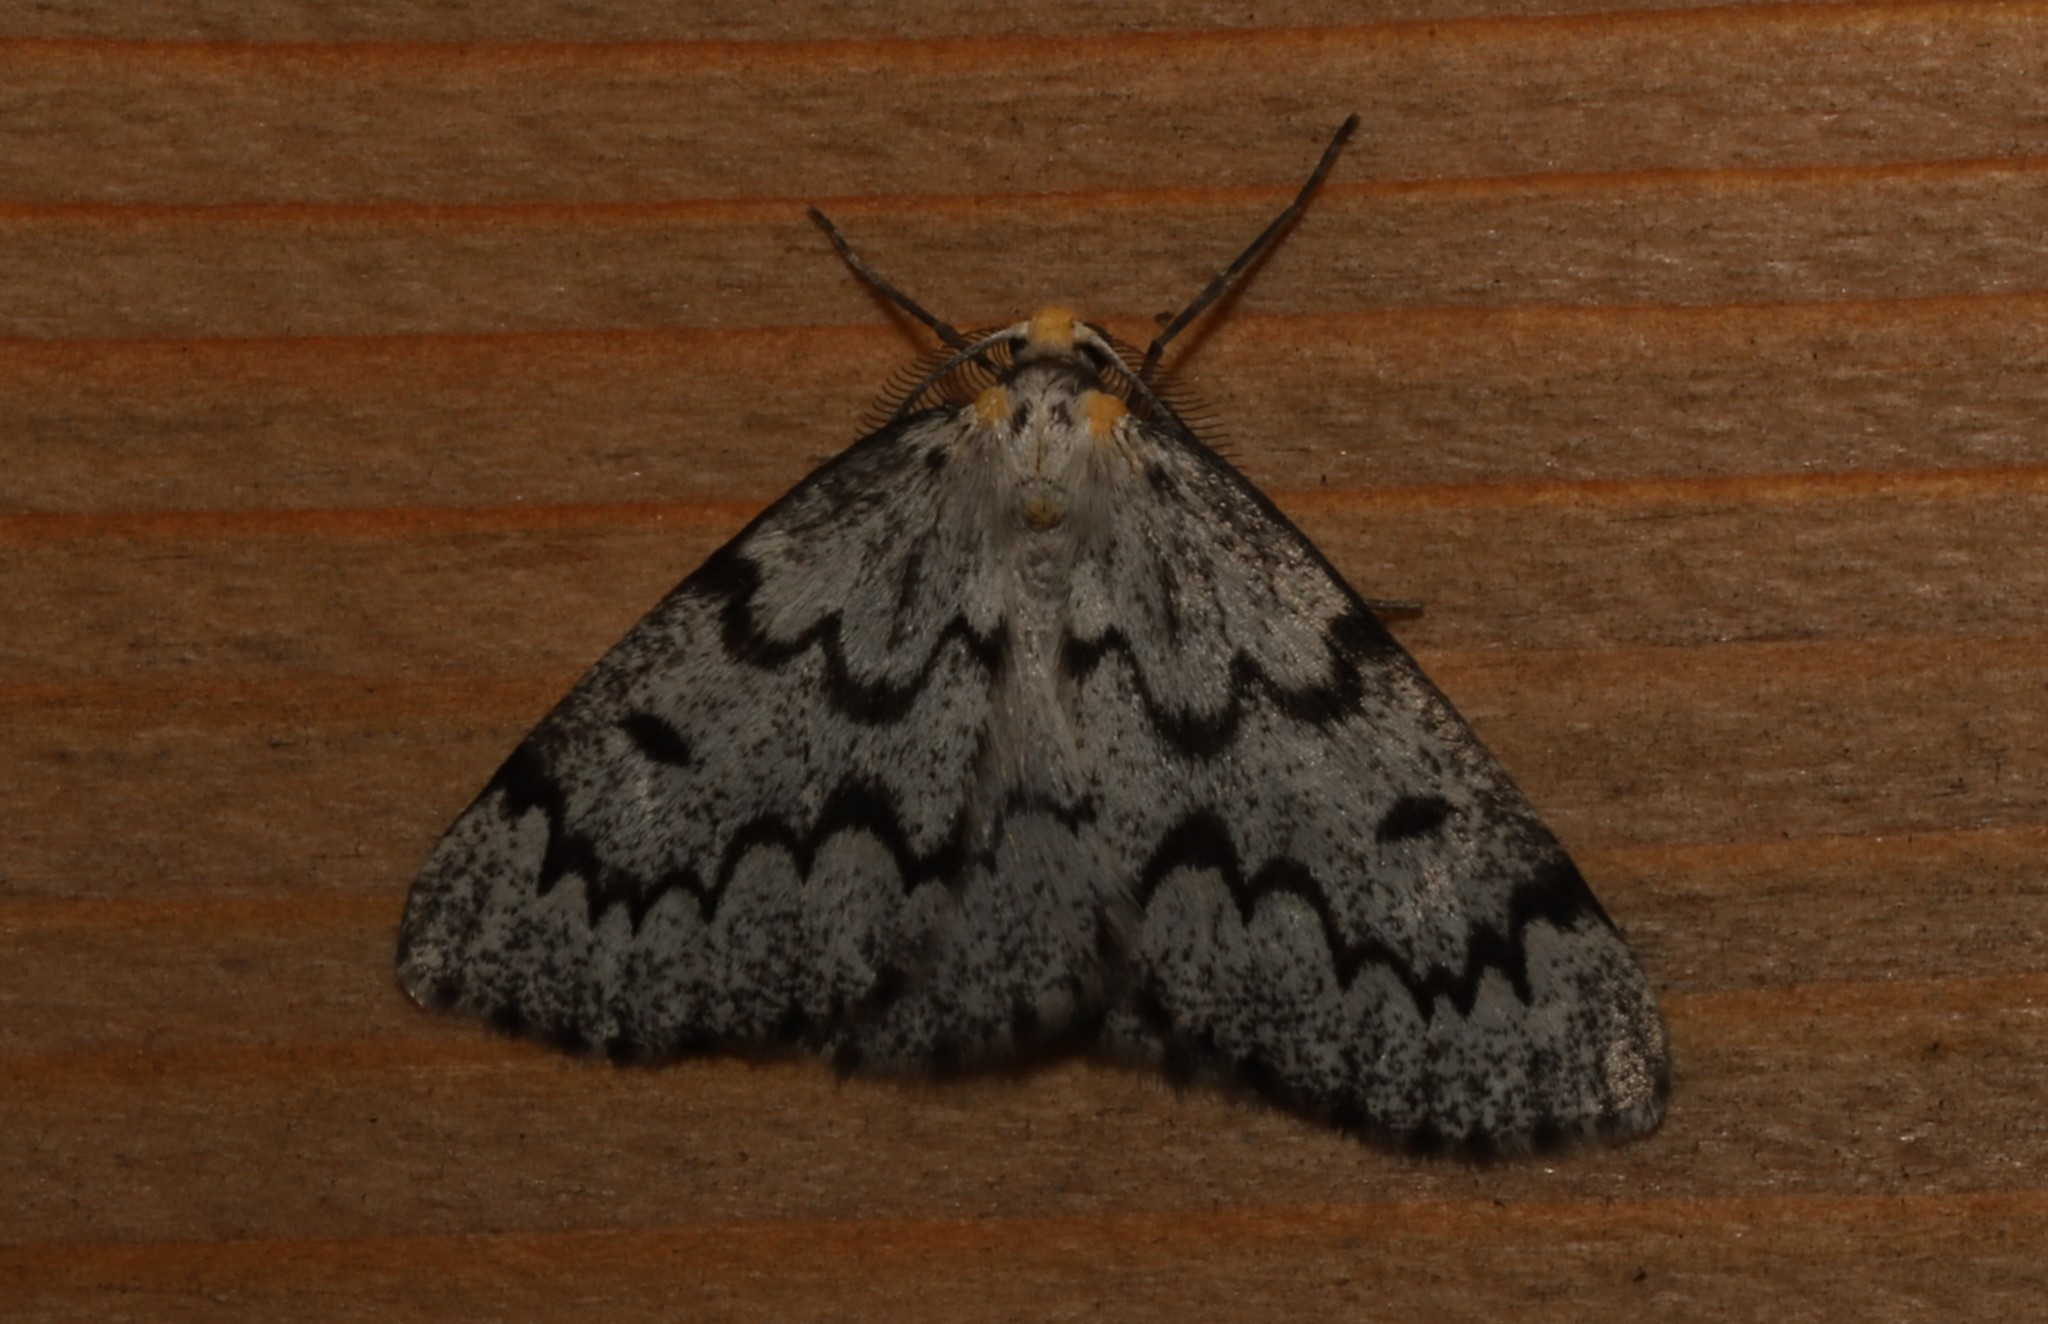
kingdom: Animalia
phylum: Arthropoda
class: Insecta
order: Lepidoptera
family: Geometridae
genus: Nepytia
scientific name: Nepytia canosaria
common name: False hemlock looper
